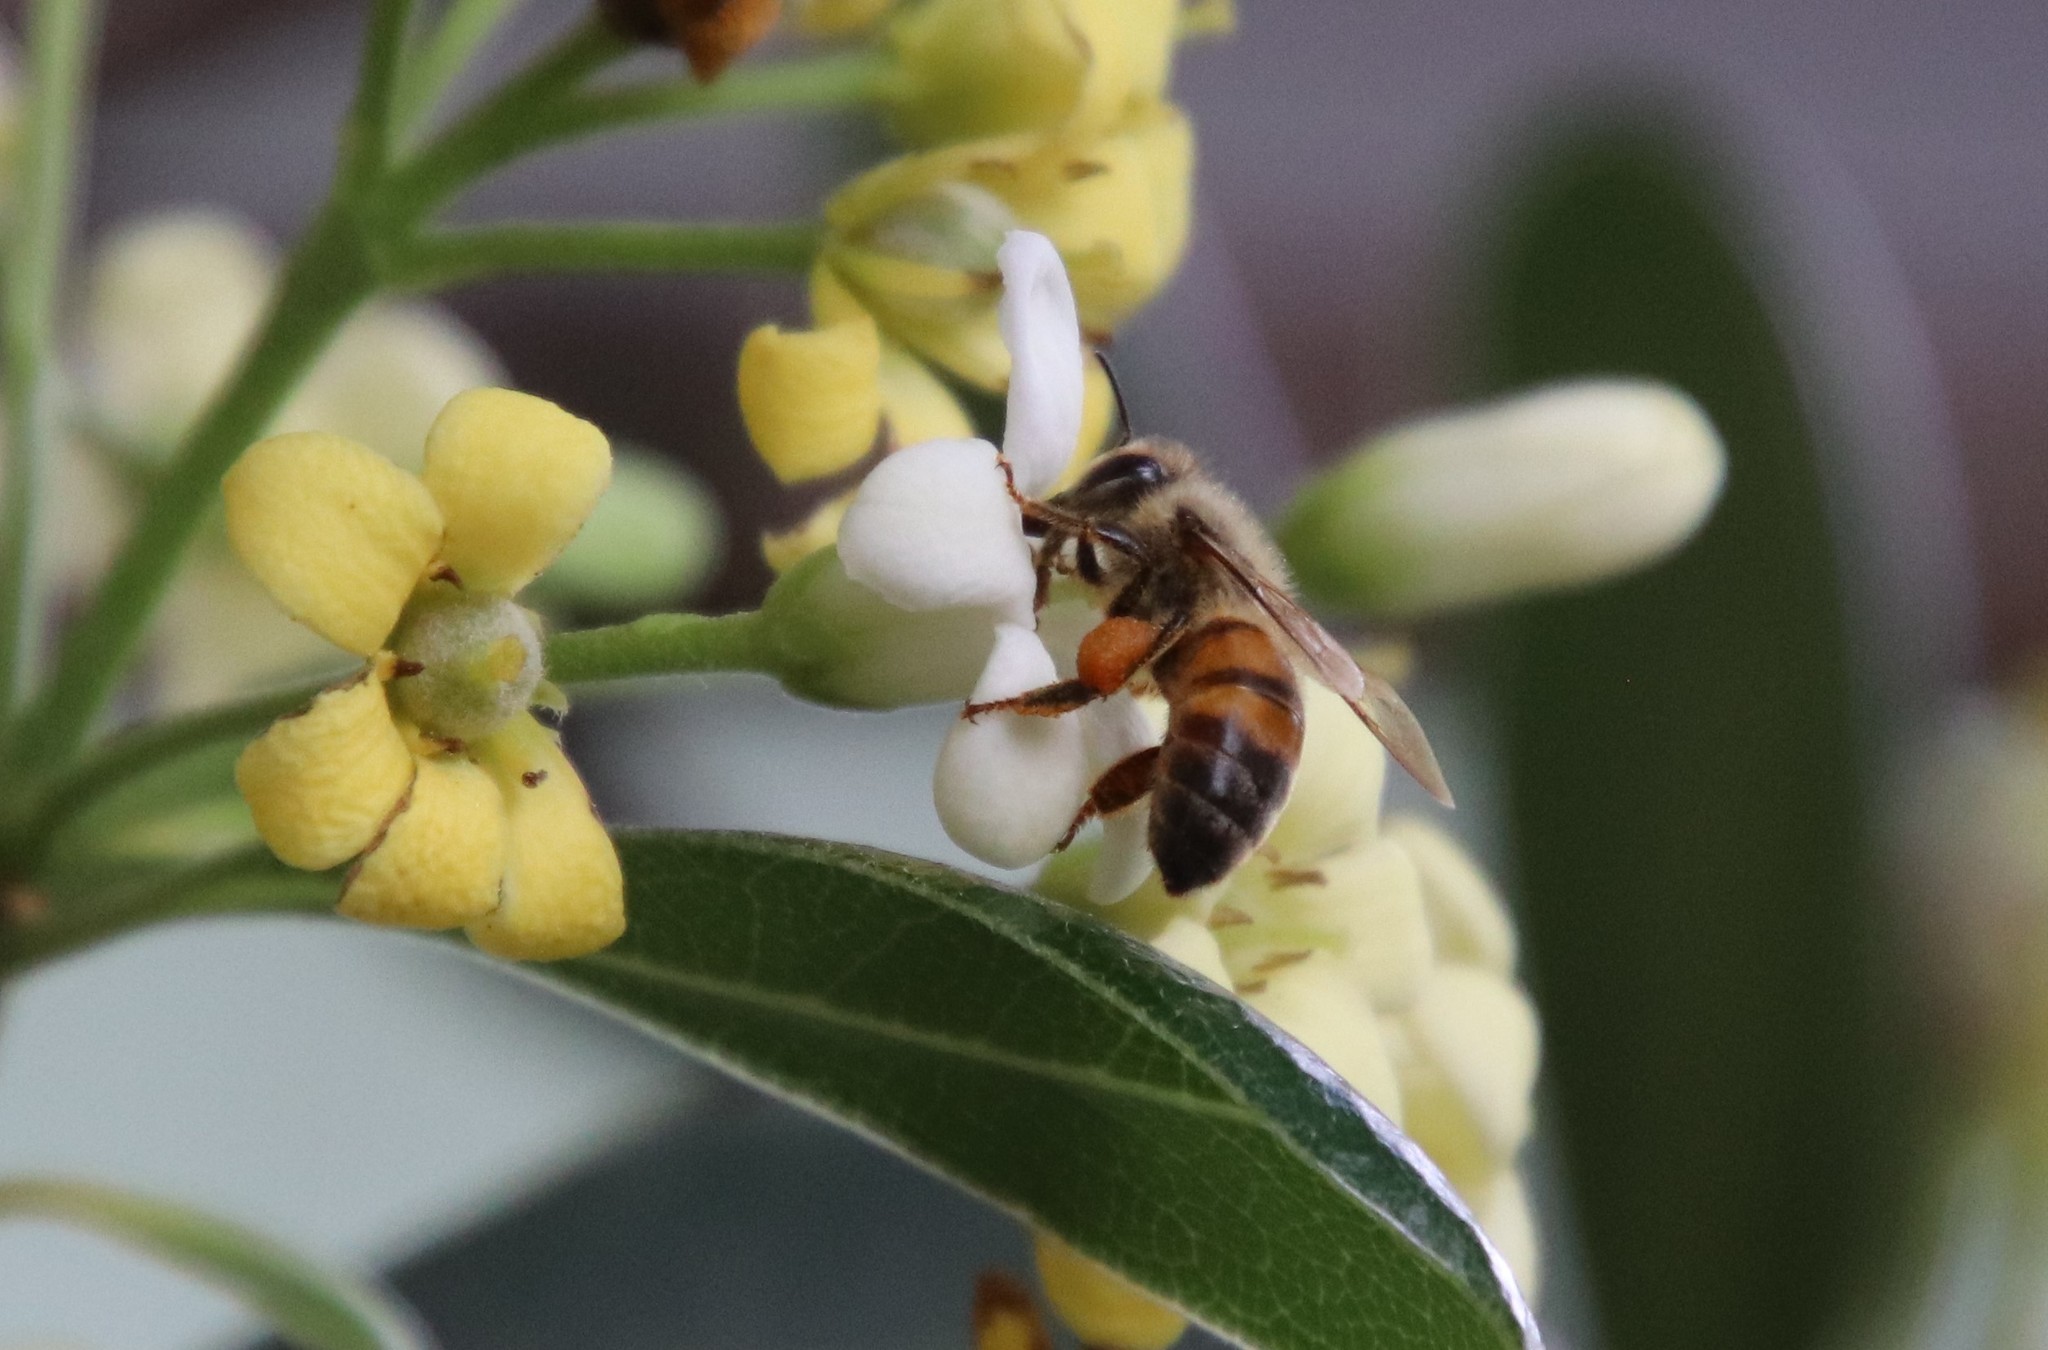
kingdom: Animalia
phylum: Arthropoda
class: Insecta
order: Hymenoptera
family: Apidae
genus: Apis
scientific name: Apis mellifera
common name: Honey bee
